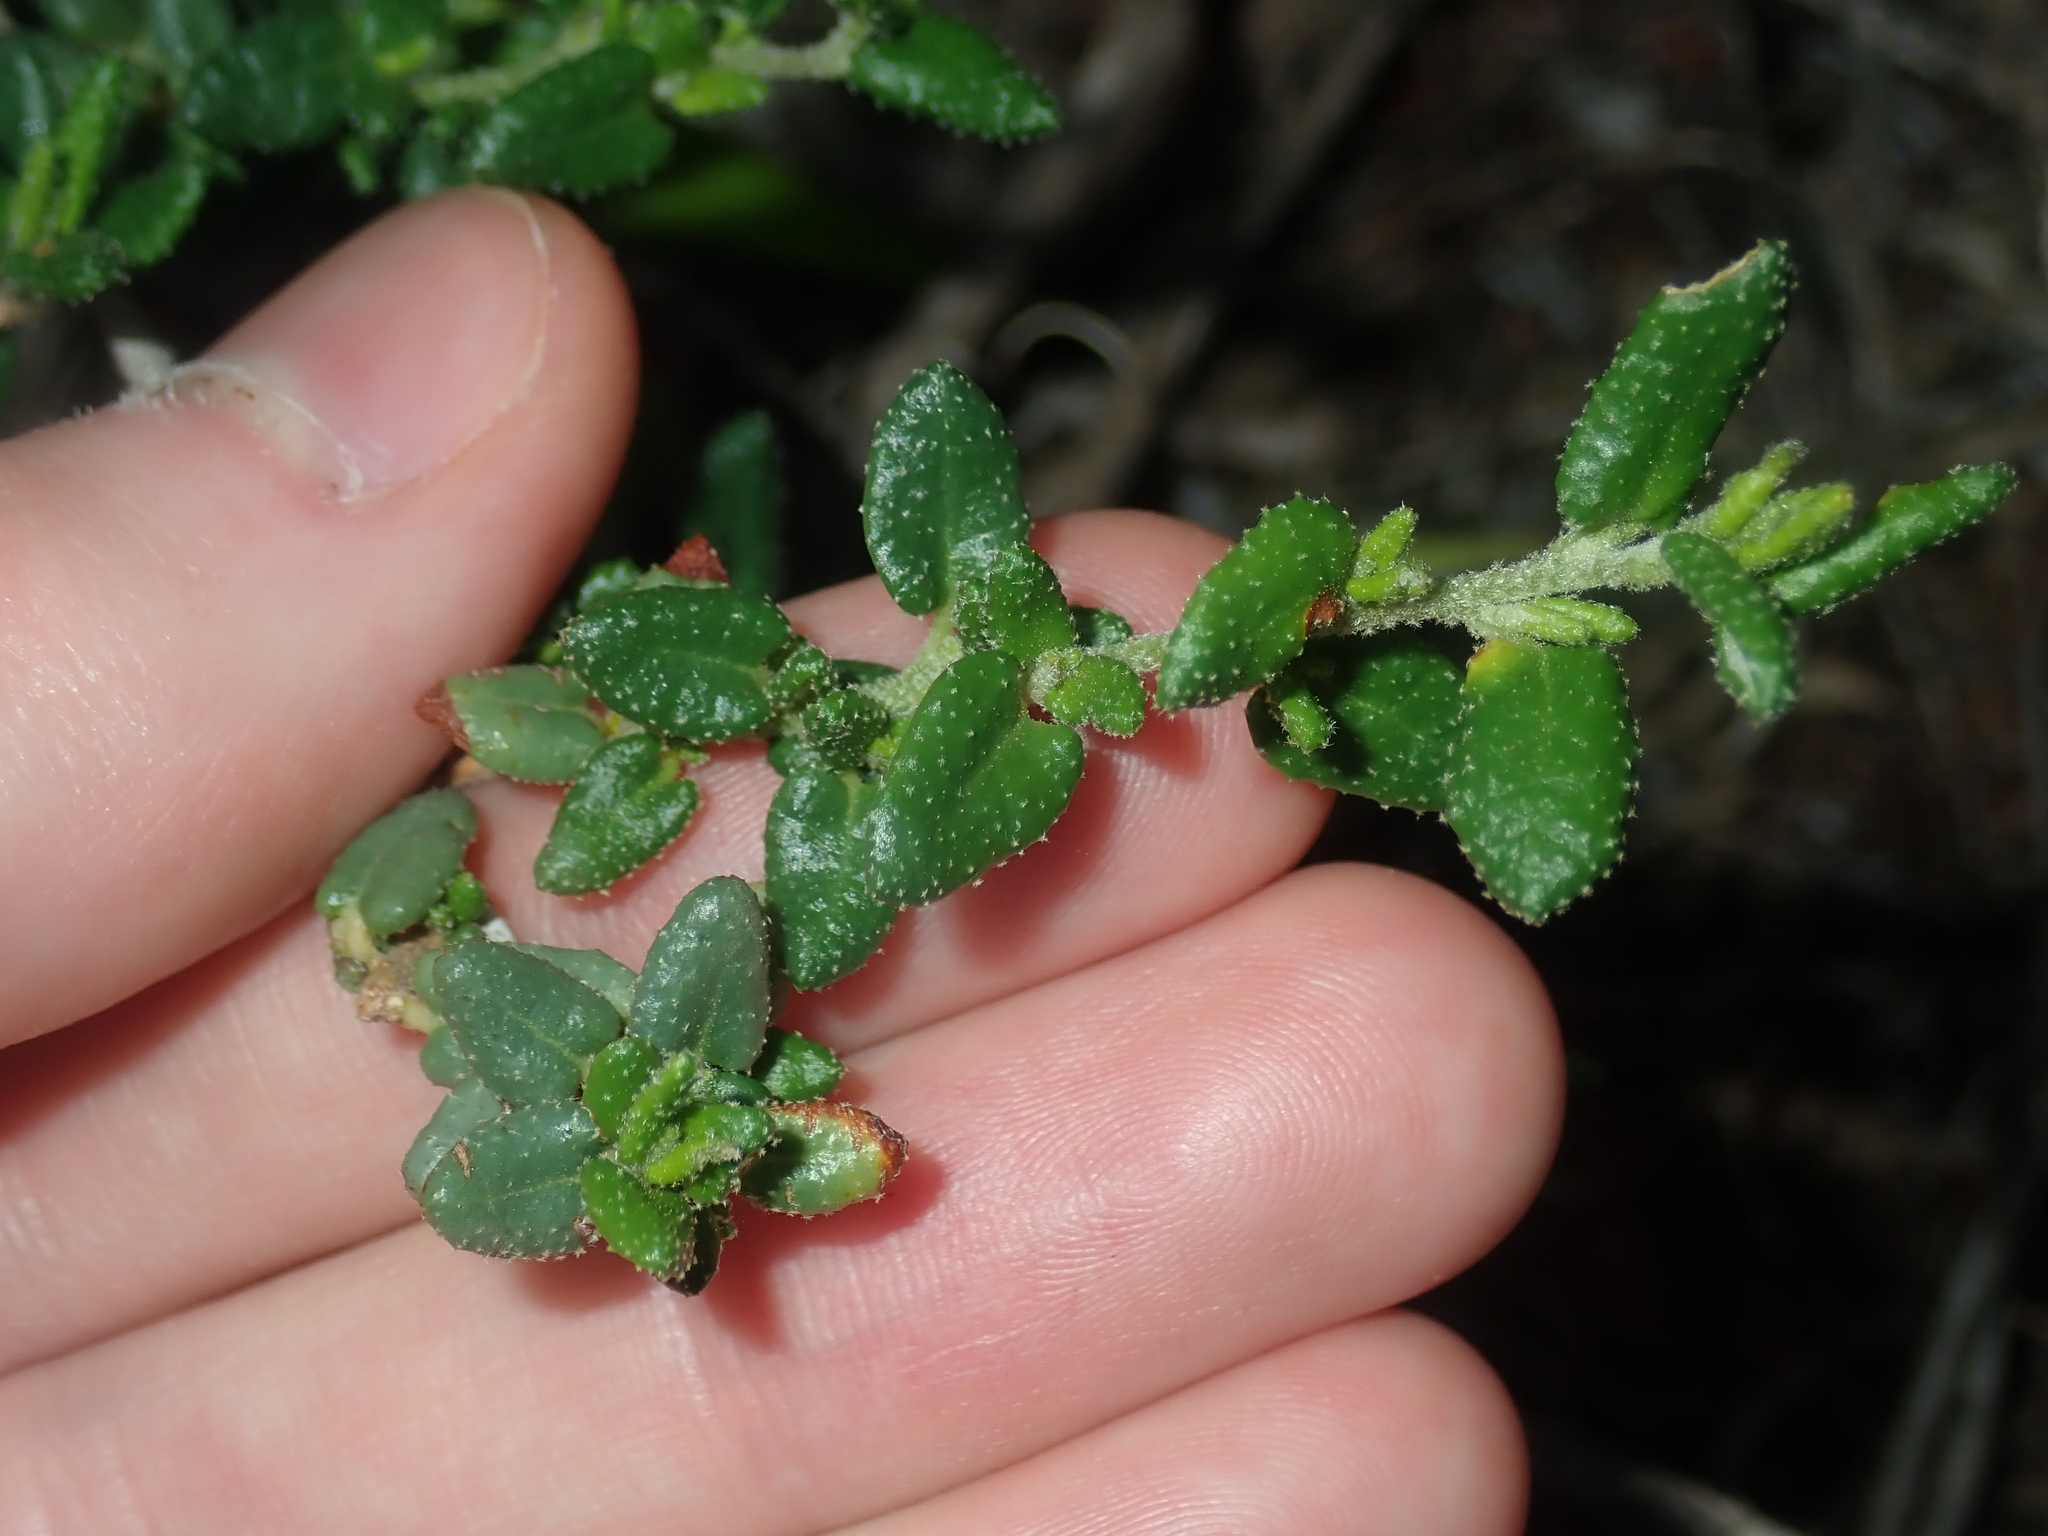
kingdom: Plantae
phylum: Tracheophyta
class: Magnoliopsida
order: Malpighiales
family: Euphorbiaceae
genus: Beyeria
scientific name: Beyeria cinerea
